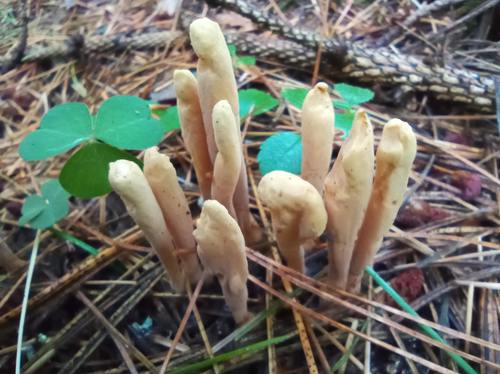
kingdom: Fungi
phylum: Basidiomycota
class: Agaricomycetes
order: Gomphales
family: Clavariadelphaceae
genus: Clavariadelphus
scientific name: Clavariadelphus ligula
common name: Ochre club
